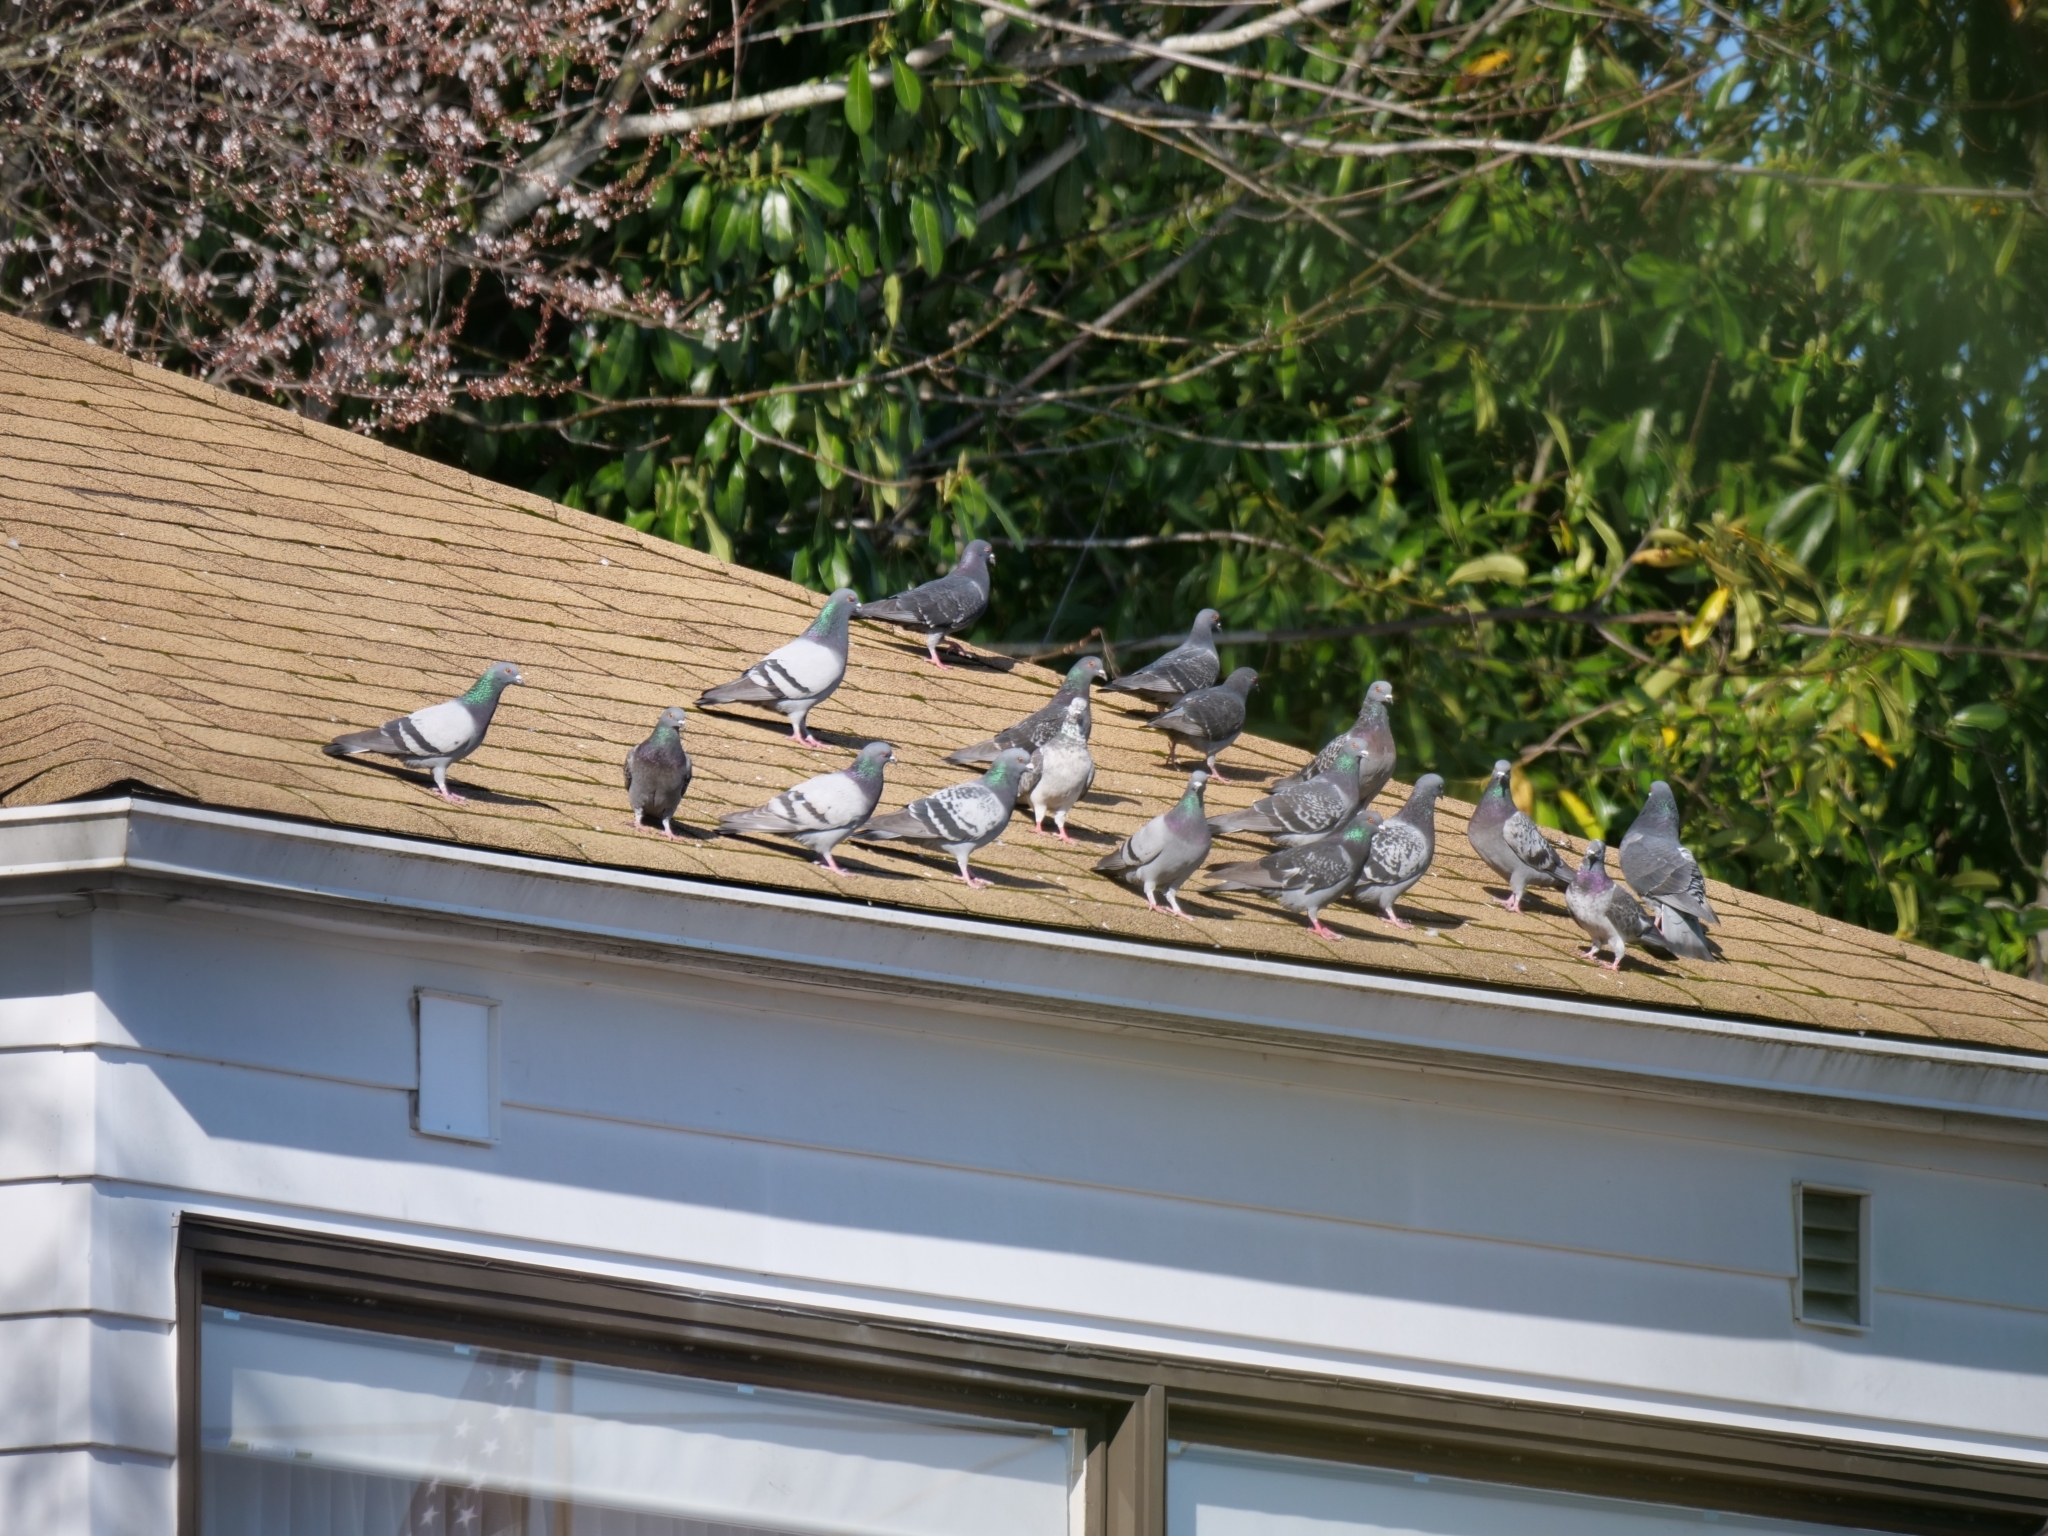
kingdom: Animalia
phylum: Chordata
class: Aves
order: Columbiformes
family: Columbidae
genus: Columba
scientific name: Columba livia
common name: Rock pigeon
